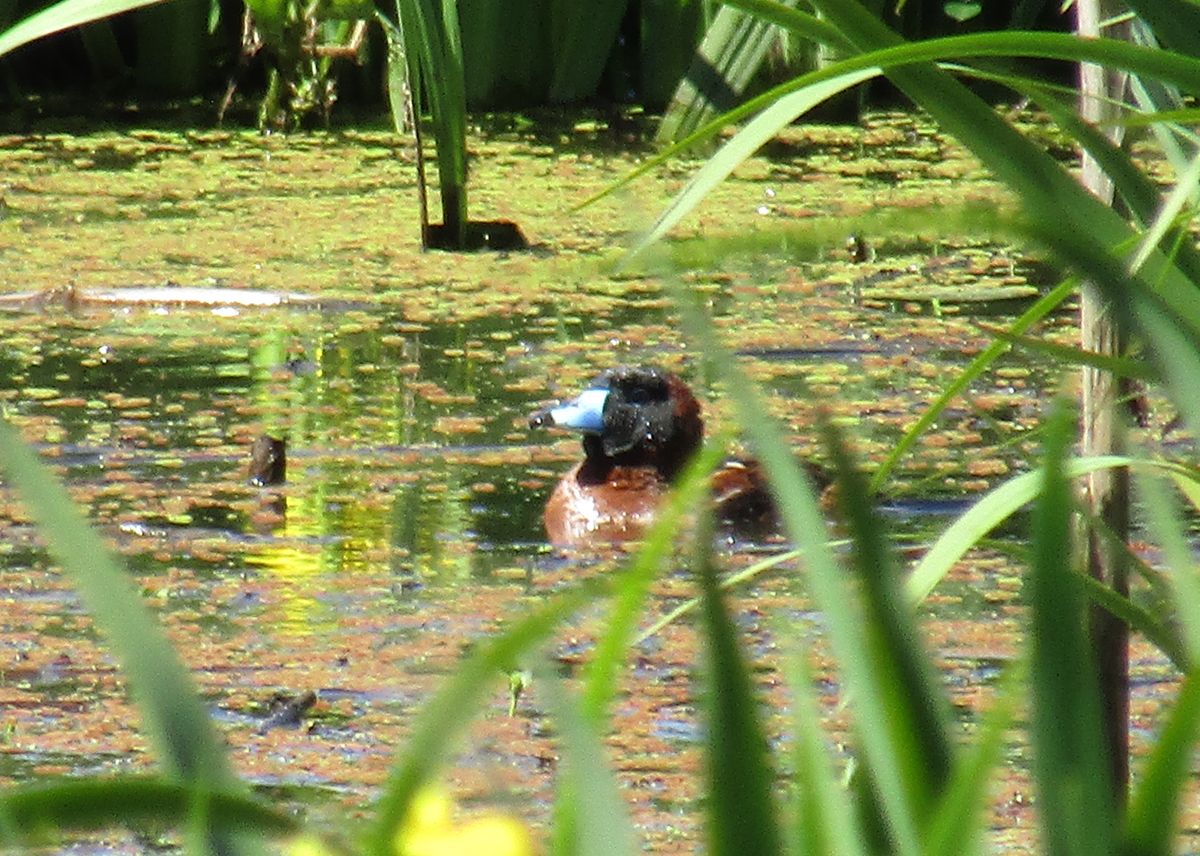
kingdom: Animalia
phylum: Chordata
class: Aves
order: Anseriformes
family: Anatidae
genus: Nomonyx
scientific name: Nomonyx dominicus
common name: Masked duck
